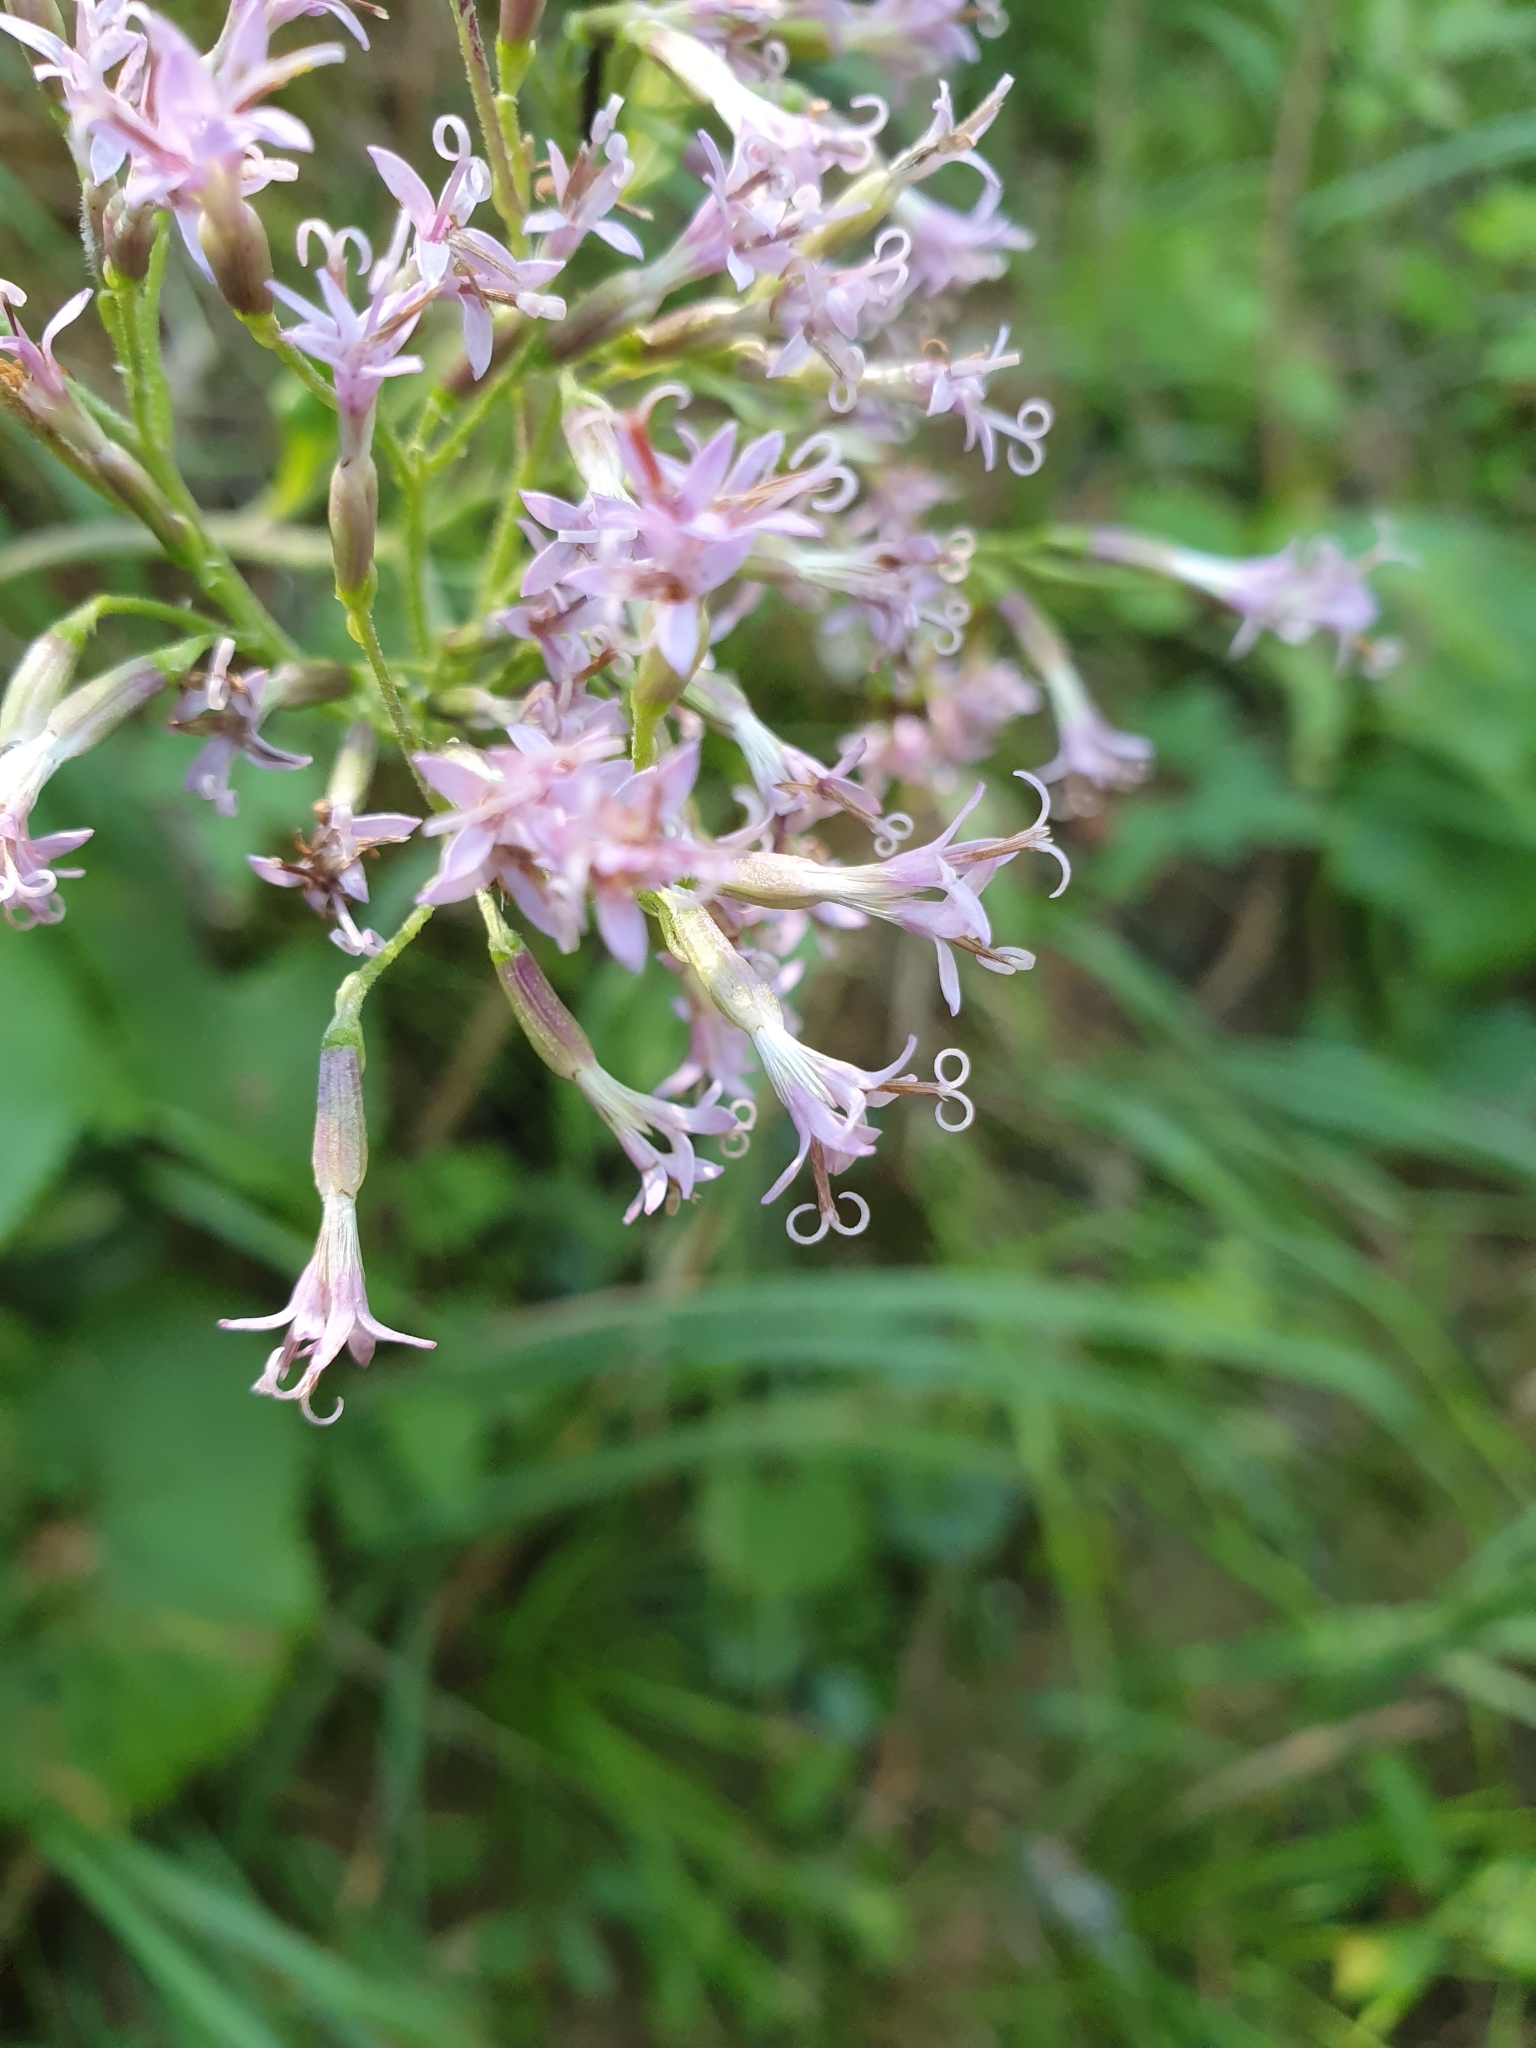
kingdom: Plantae
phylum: Tracheophyta
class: Magnoliopsida
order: Asterales
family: Asteraceae
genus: Adenostyles
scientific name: Adenostyles alpina
